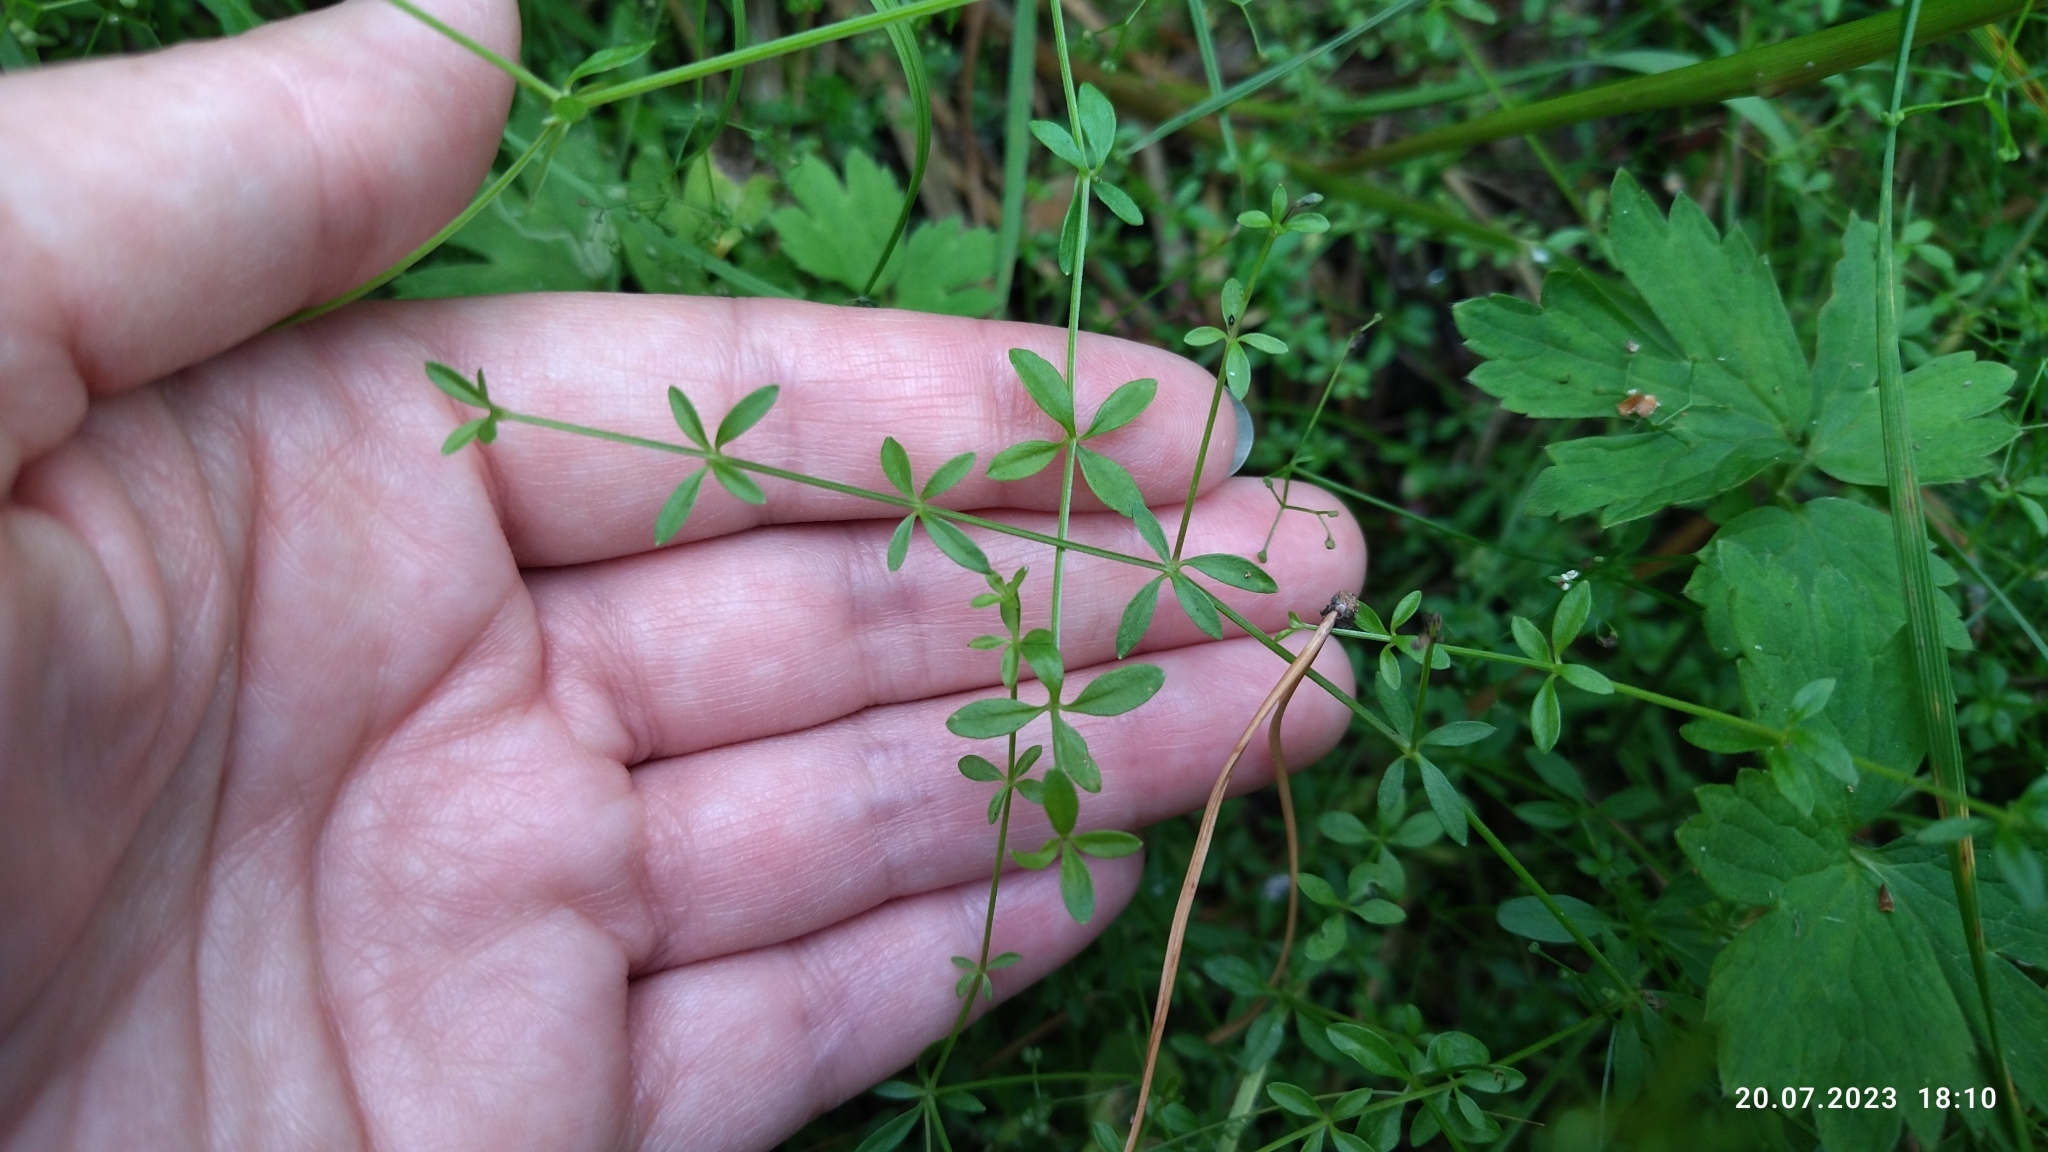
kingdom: Plantae
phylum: Tracheophyta
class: Magnoliopsida
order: Gentianales
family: Rubiaceae
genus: Galium
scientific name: Galium palustre
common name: Common marsh-bedstraw
